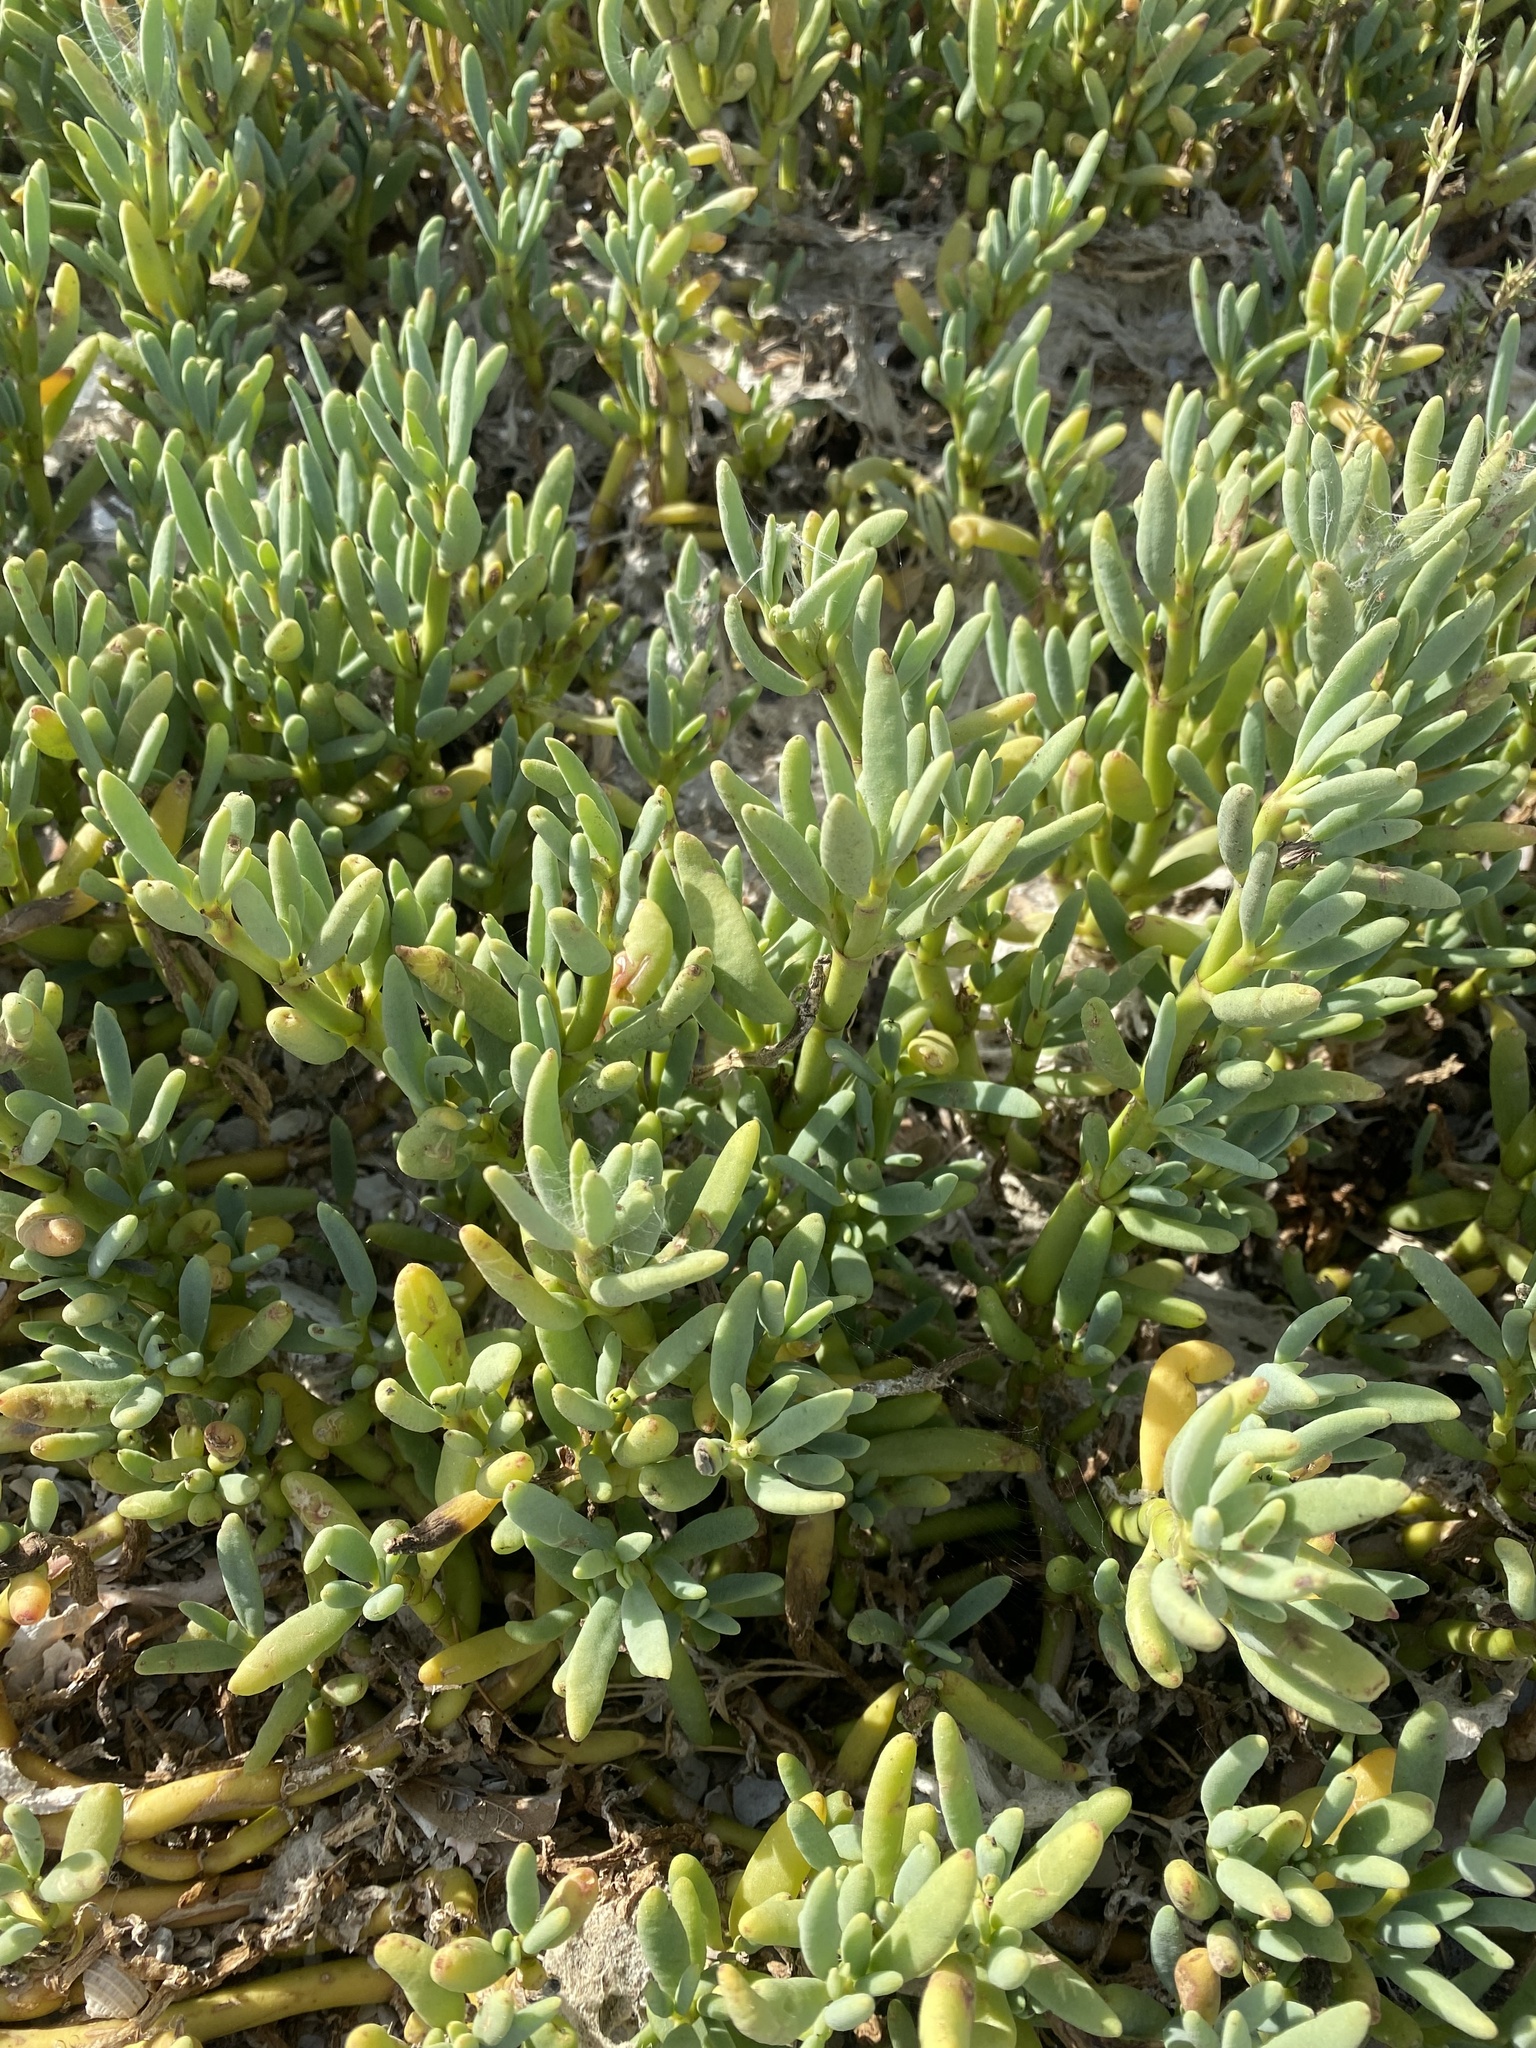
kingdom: Plantae
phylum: Tracheophyta
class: Magnoliopsida
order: Brassicales
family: Bataceae
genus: Batis
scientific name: Batis maritima
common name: Turtleweed
